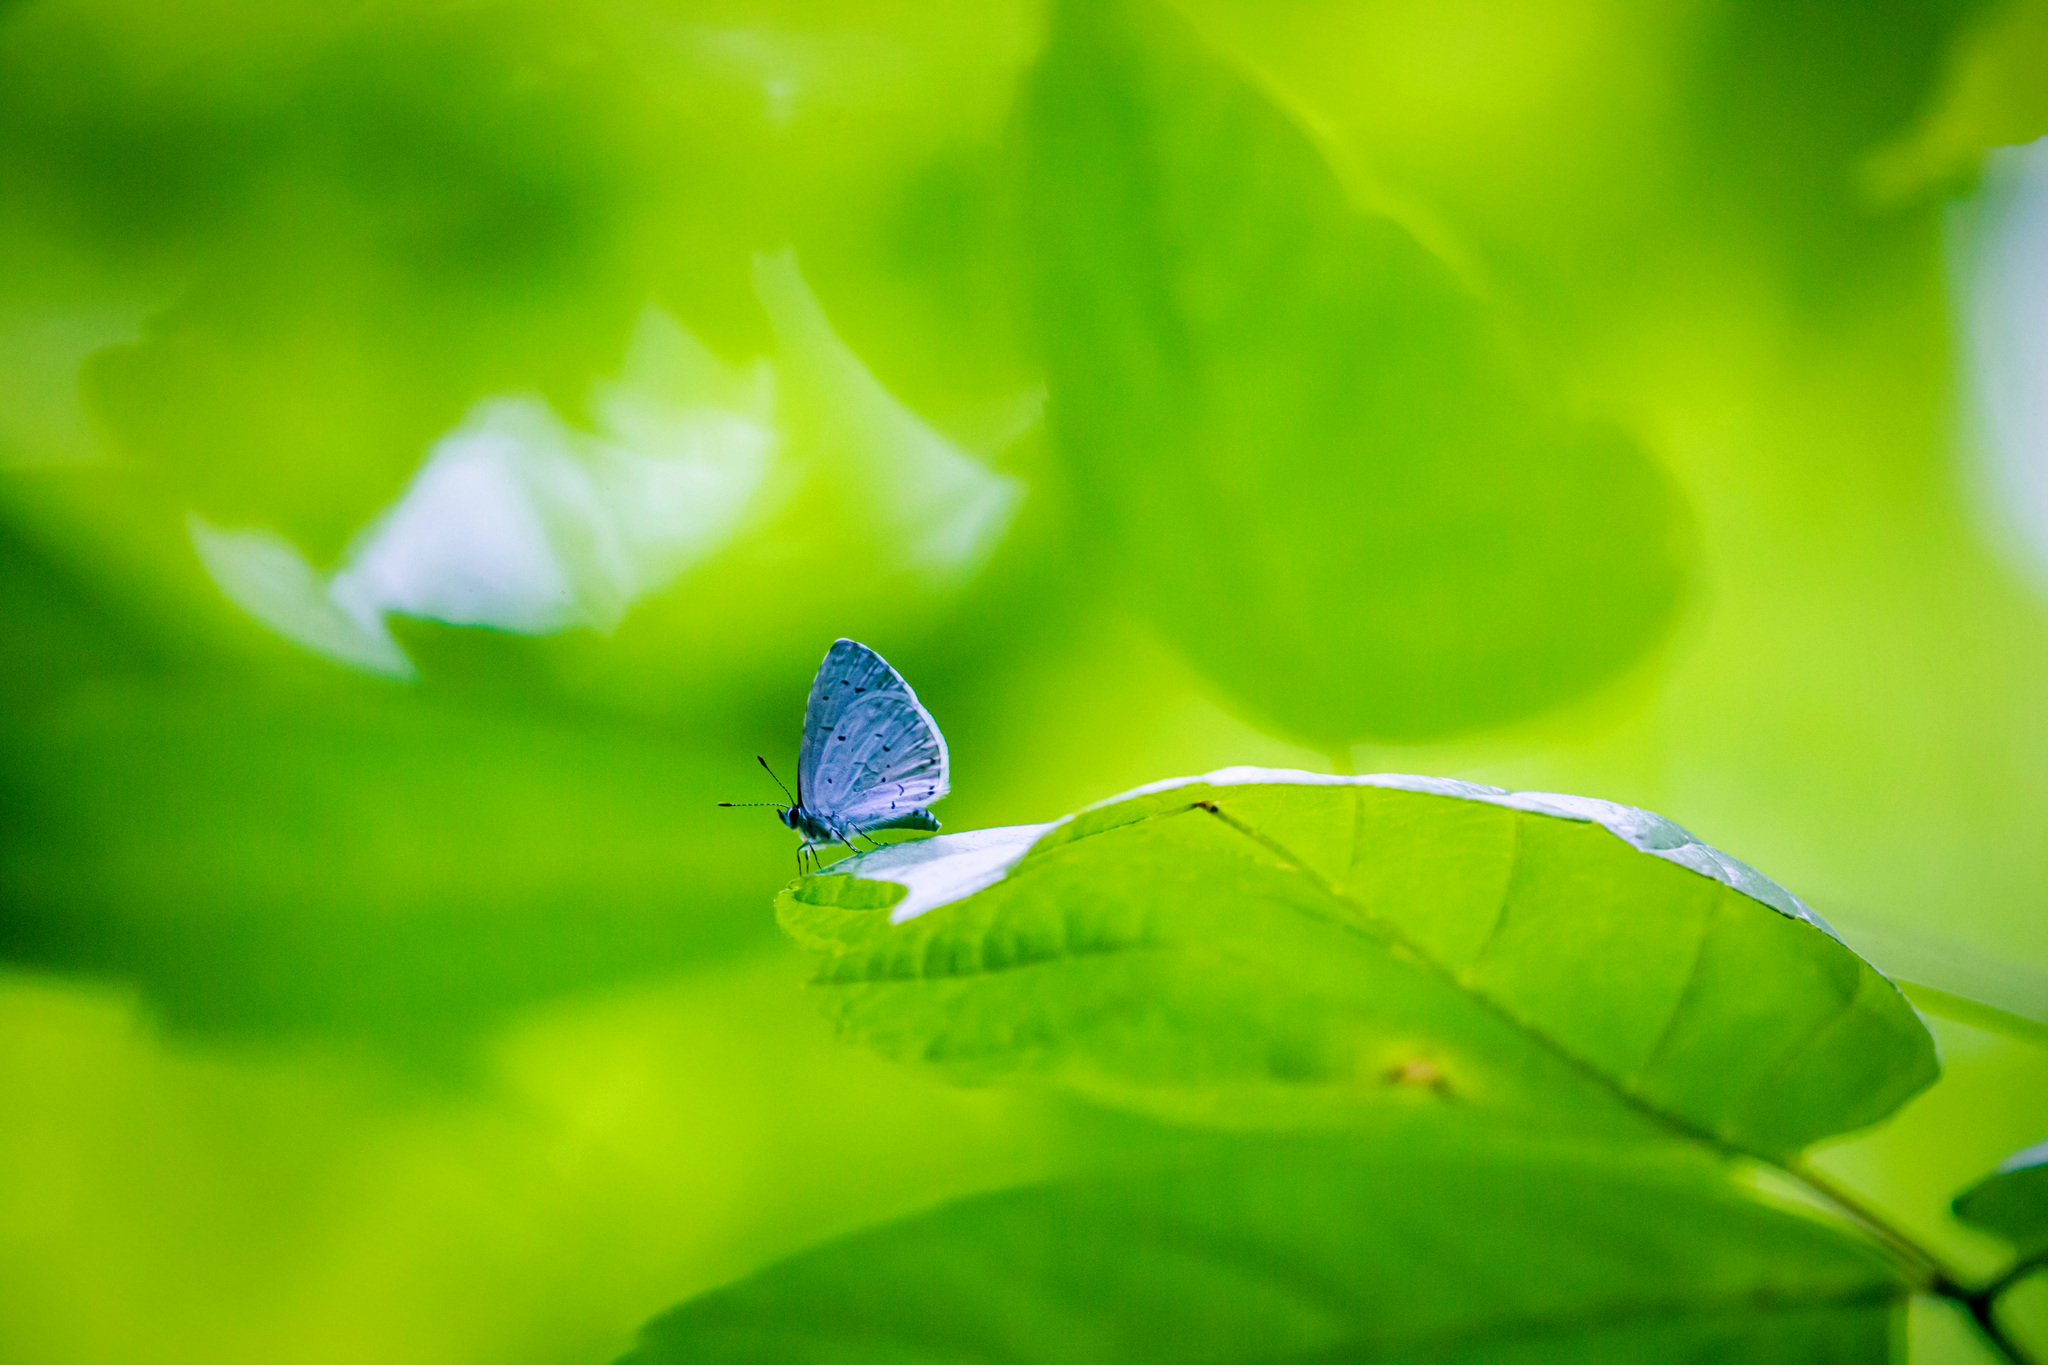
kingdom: Animalia
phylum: Arthropoda
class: Insecta
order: Lepidoptera
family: Lycaenidae
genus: Cyaniris
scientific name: Cyaniris neglecta
